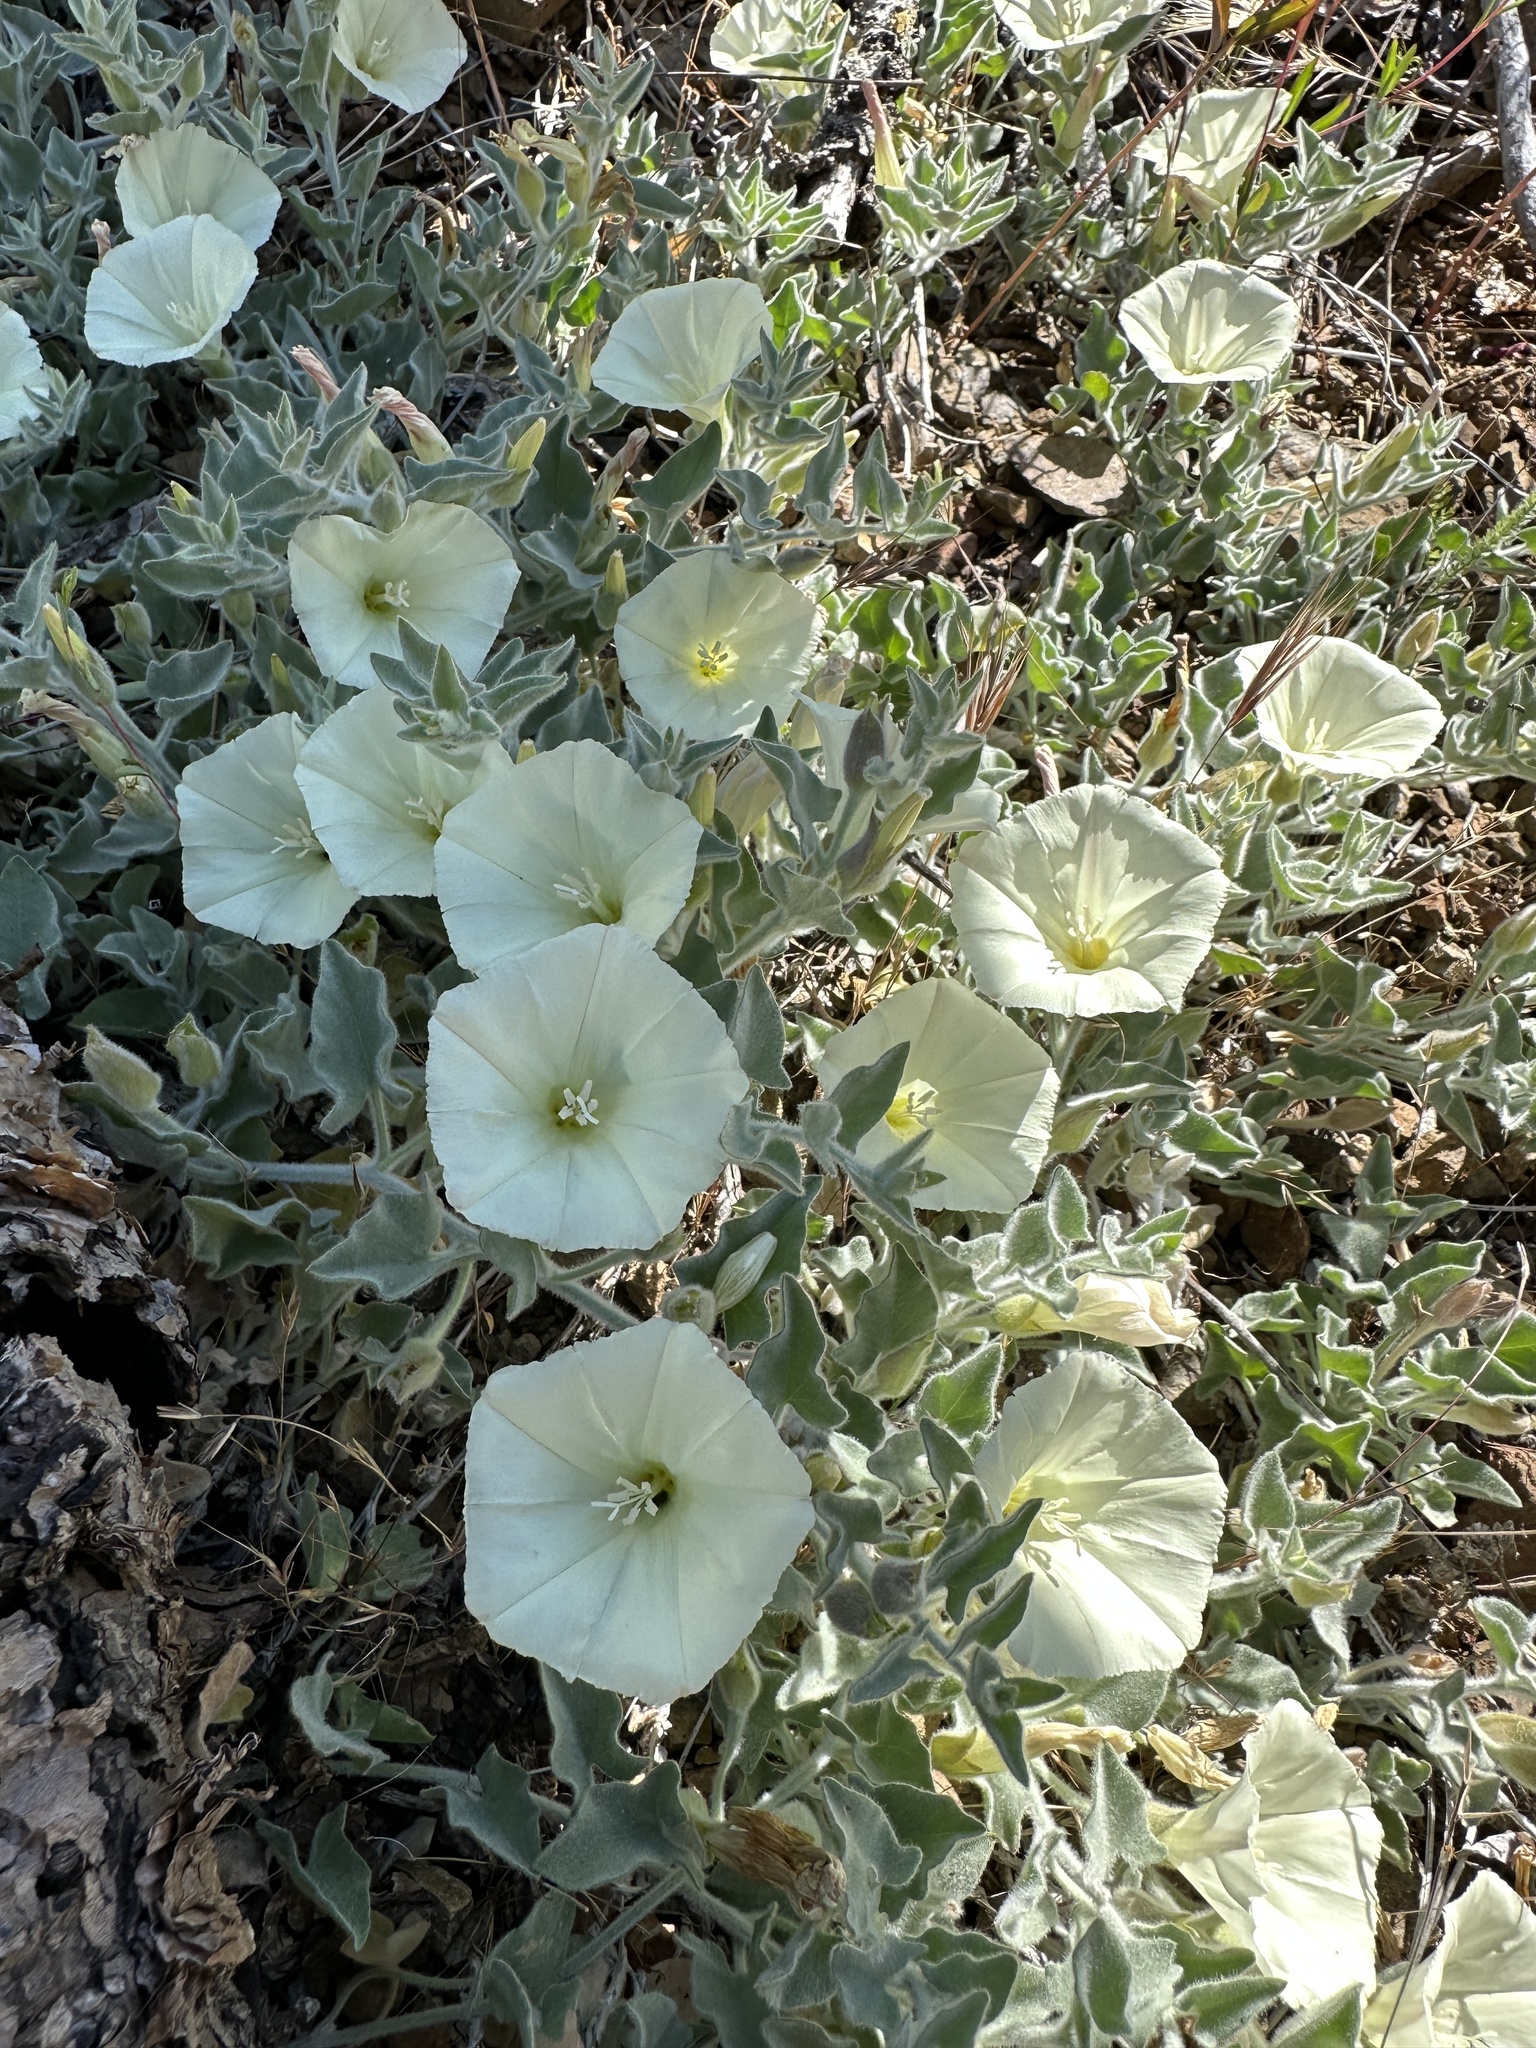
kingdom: Plantae
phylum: Tracheophyta
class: Magnoliopsida
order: Solanales
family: Convolvulaceae
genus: Calystegia
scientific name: Calystegia malacophylla
